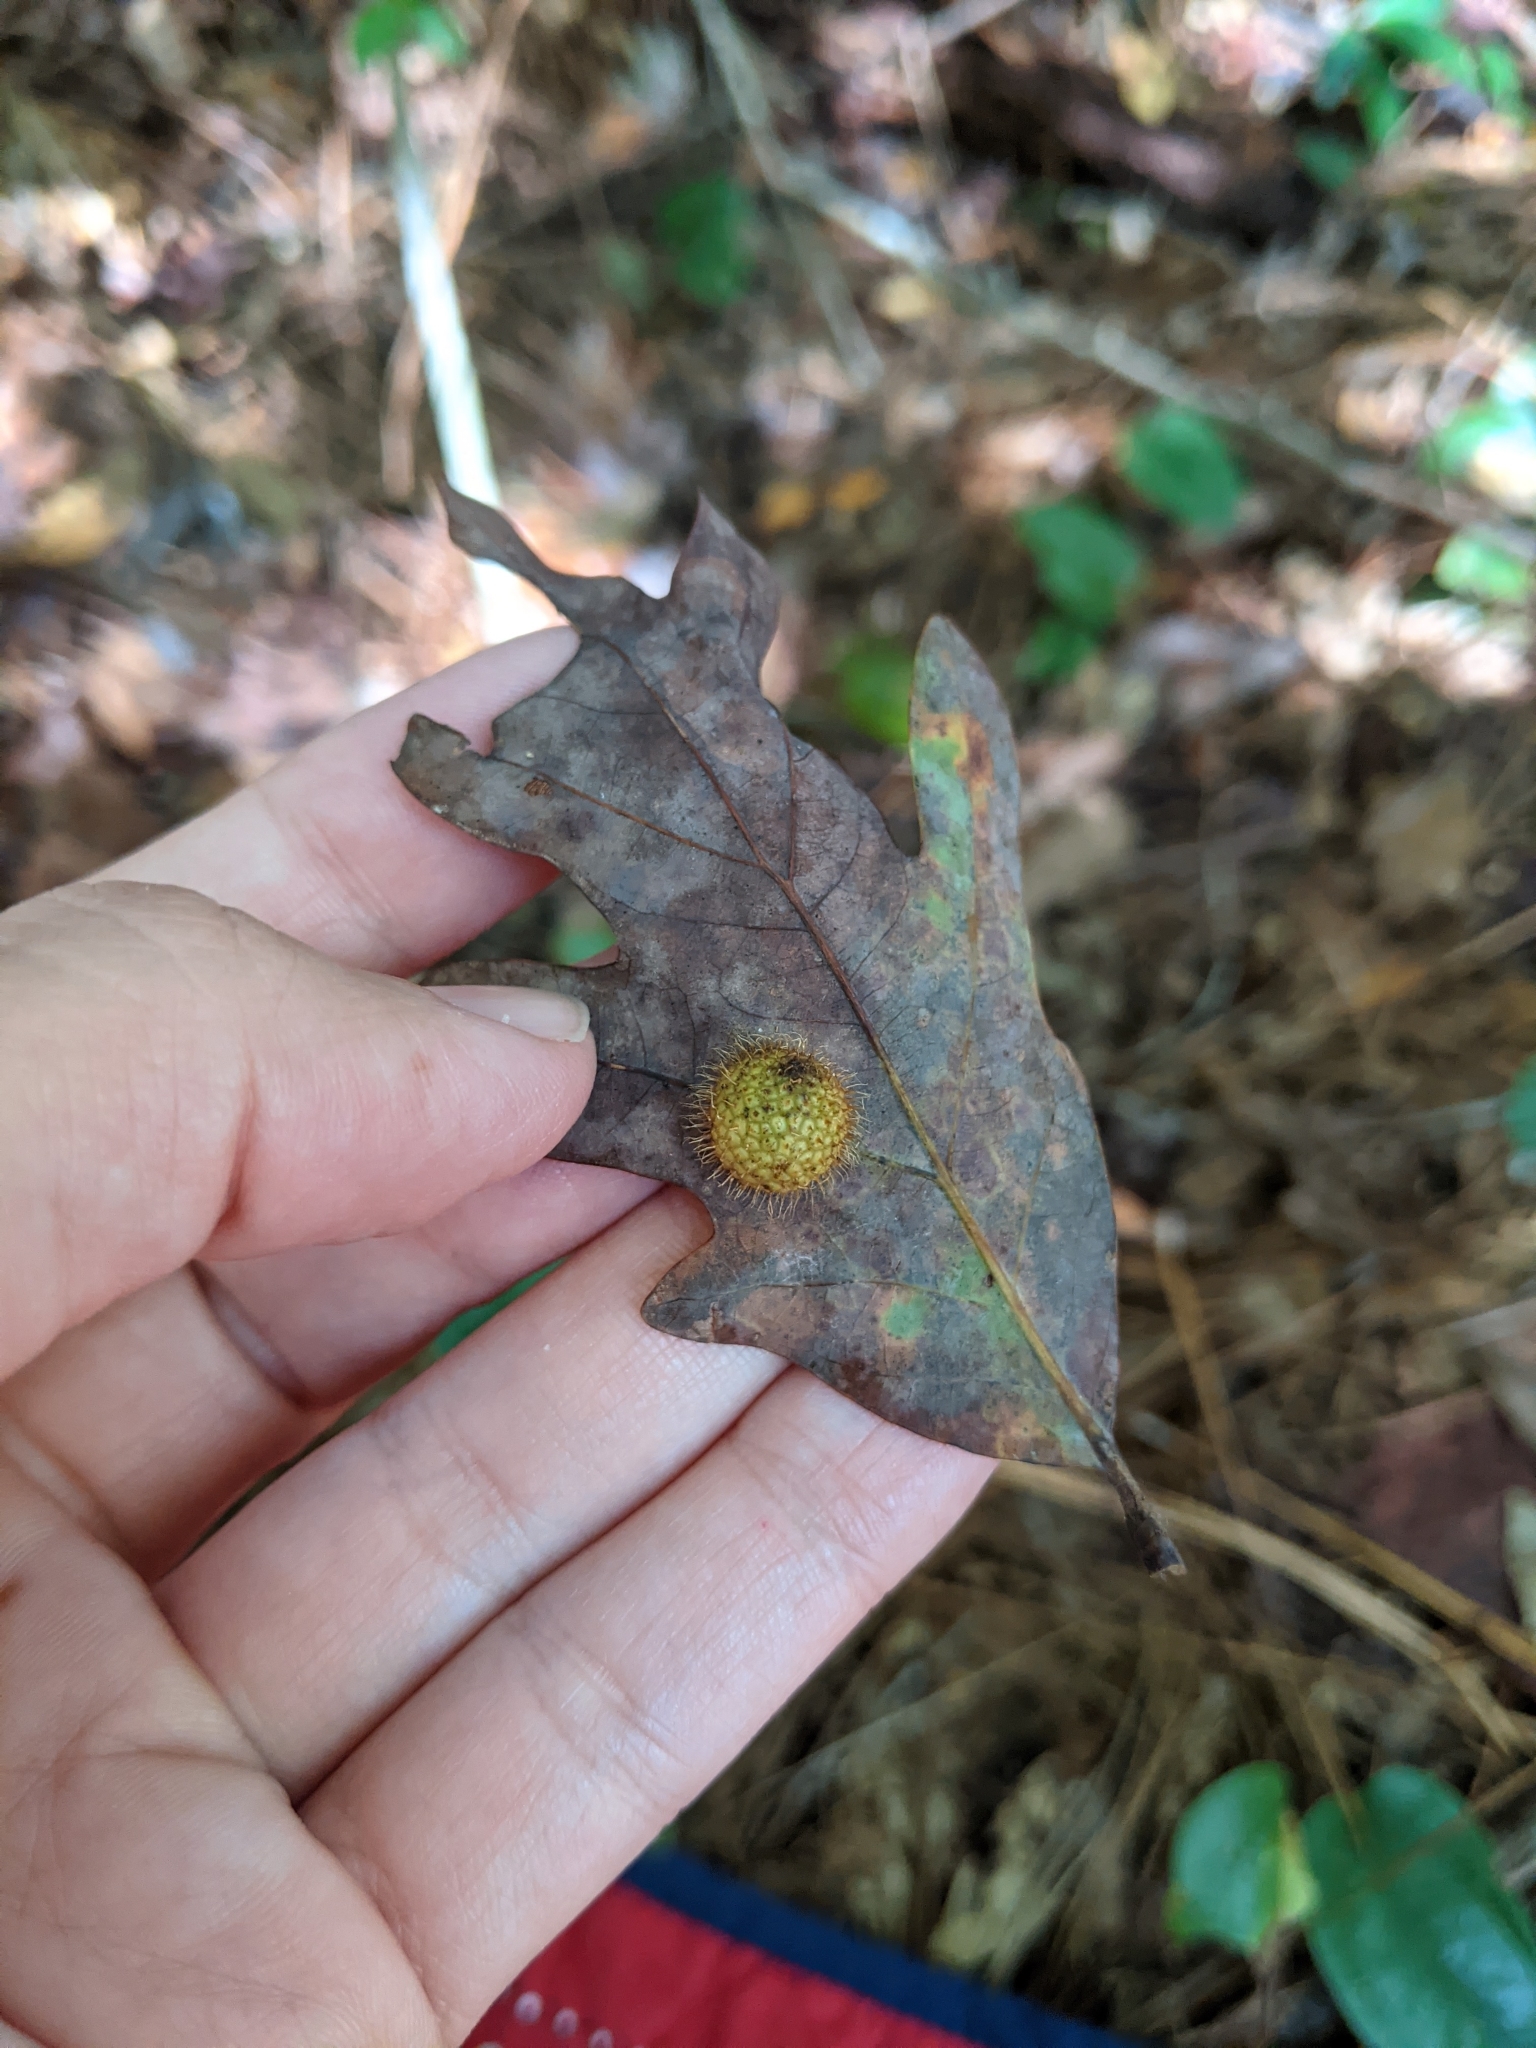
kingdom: Animalia
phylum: Arthropoda
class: Insecta
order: Hymenoptera
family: Cynipidae
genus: Acraspis
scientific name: Acraspis erinacei
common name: Hedgehog gall wasp
